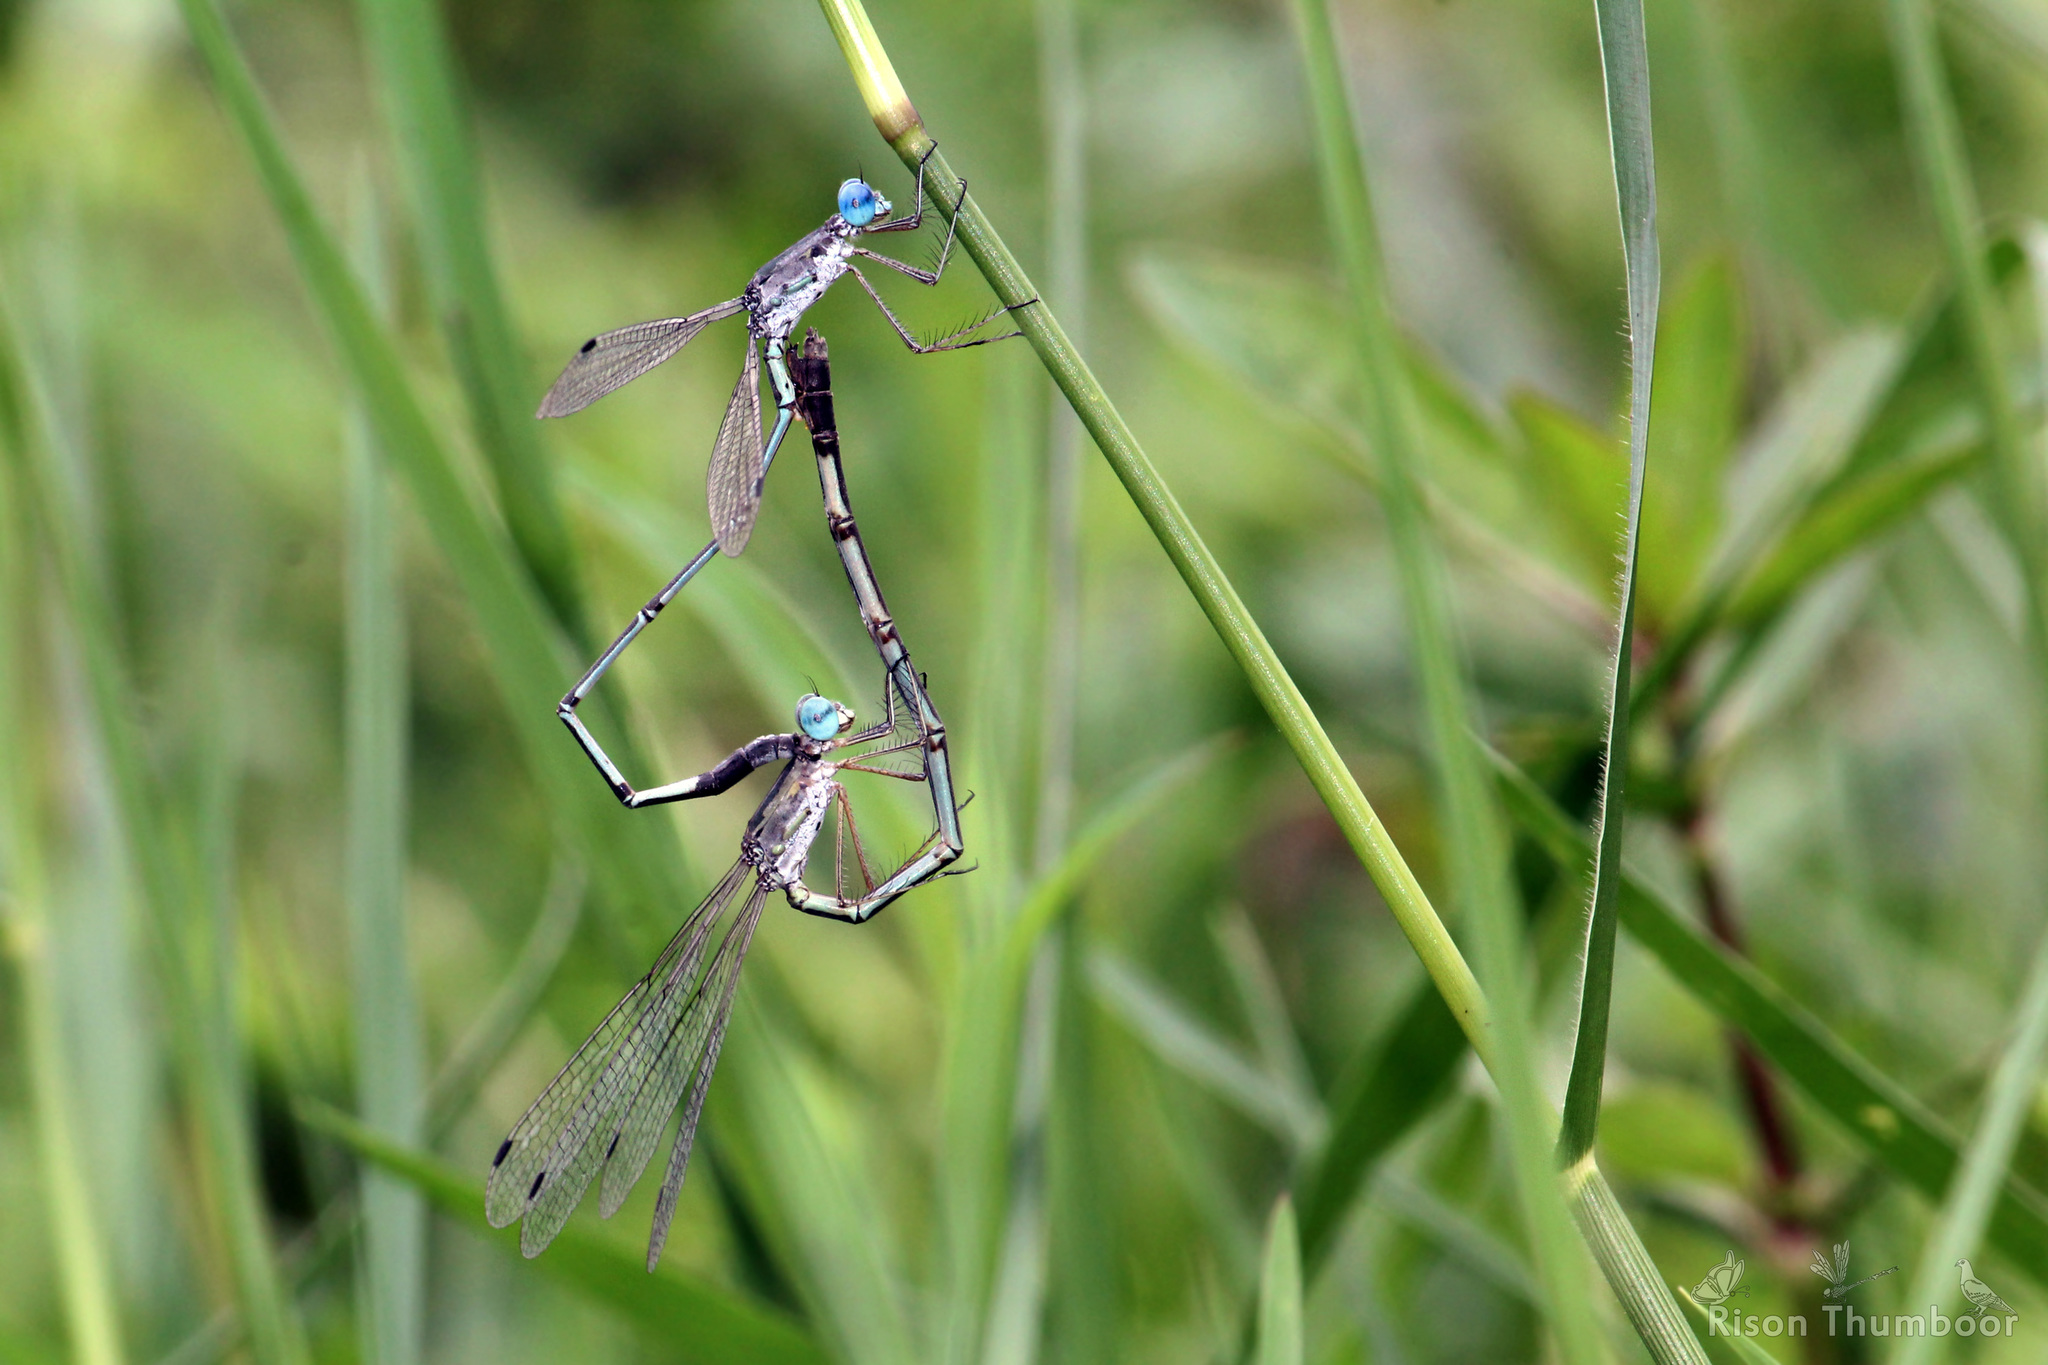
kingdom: Animalia
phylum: Arthropoda
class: Insecta
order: Odonata
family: Lestidae
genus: Lestes
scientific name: Lestes elatus
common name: Emerald spreadwing
